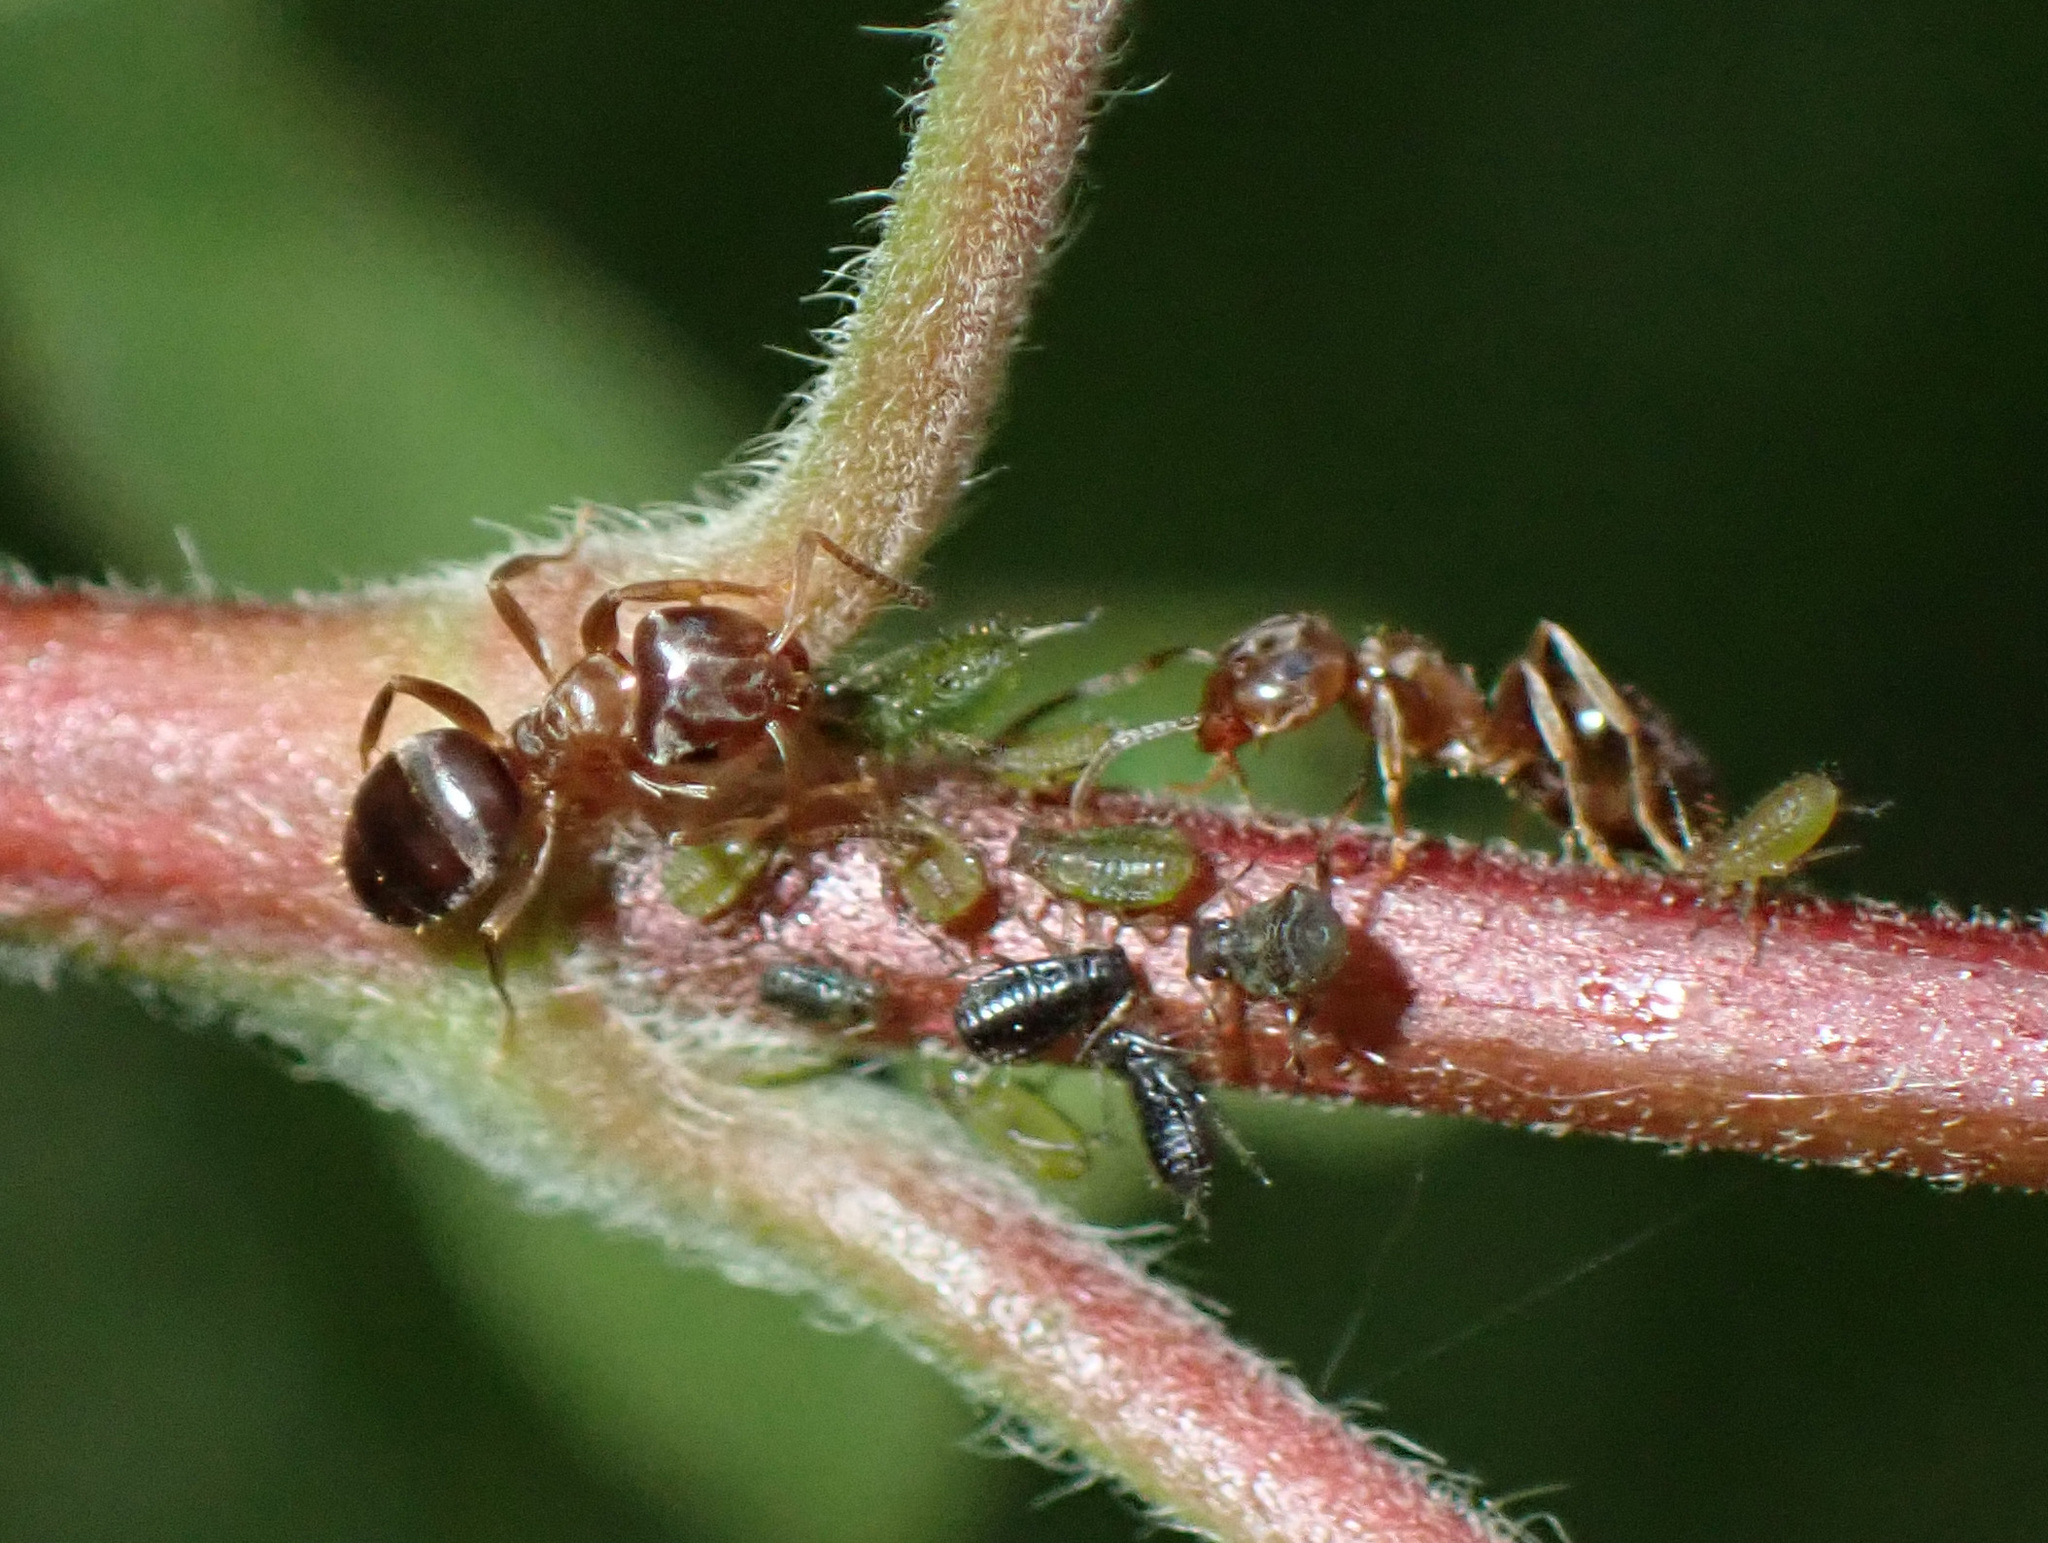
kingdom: Animalia
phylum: Arthropoda
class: Insecta
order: Hymenoptera
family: Formicidae
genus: Lasius
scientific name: Lasius brunneus
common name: Brown ant
